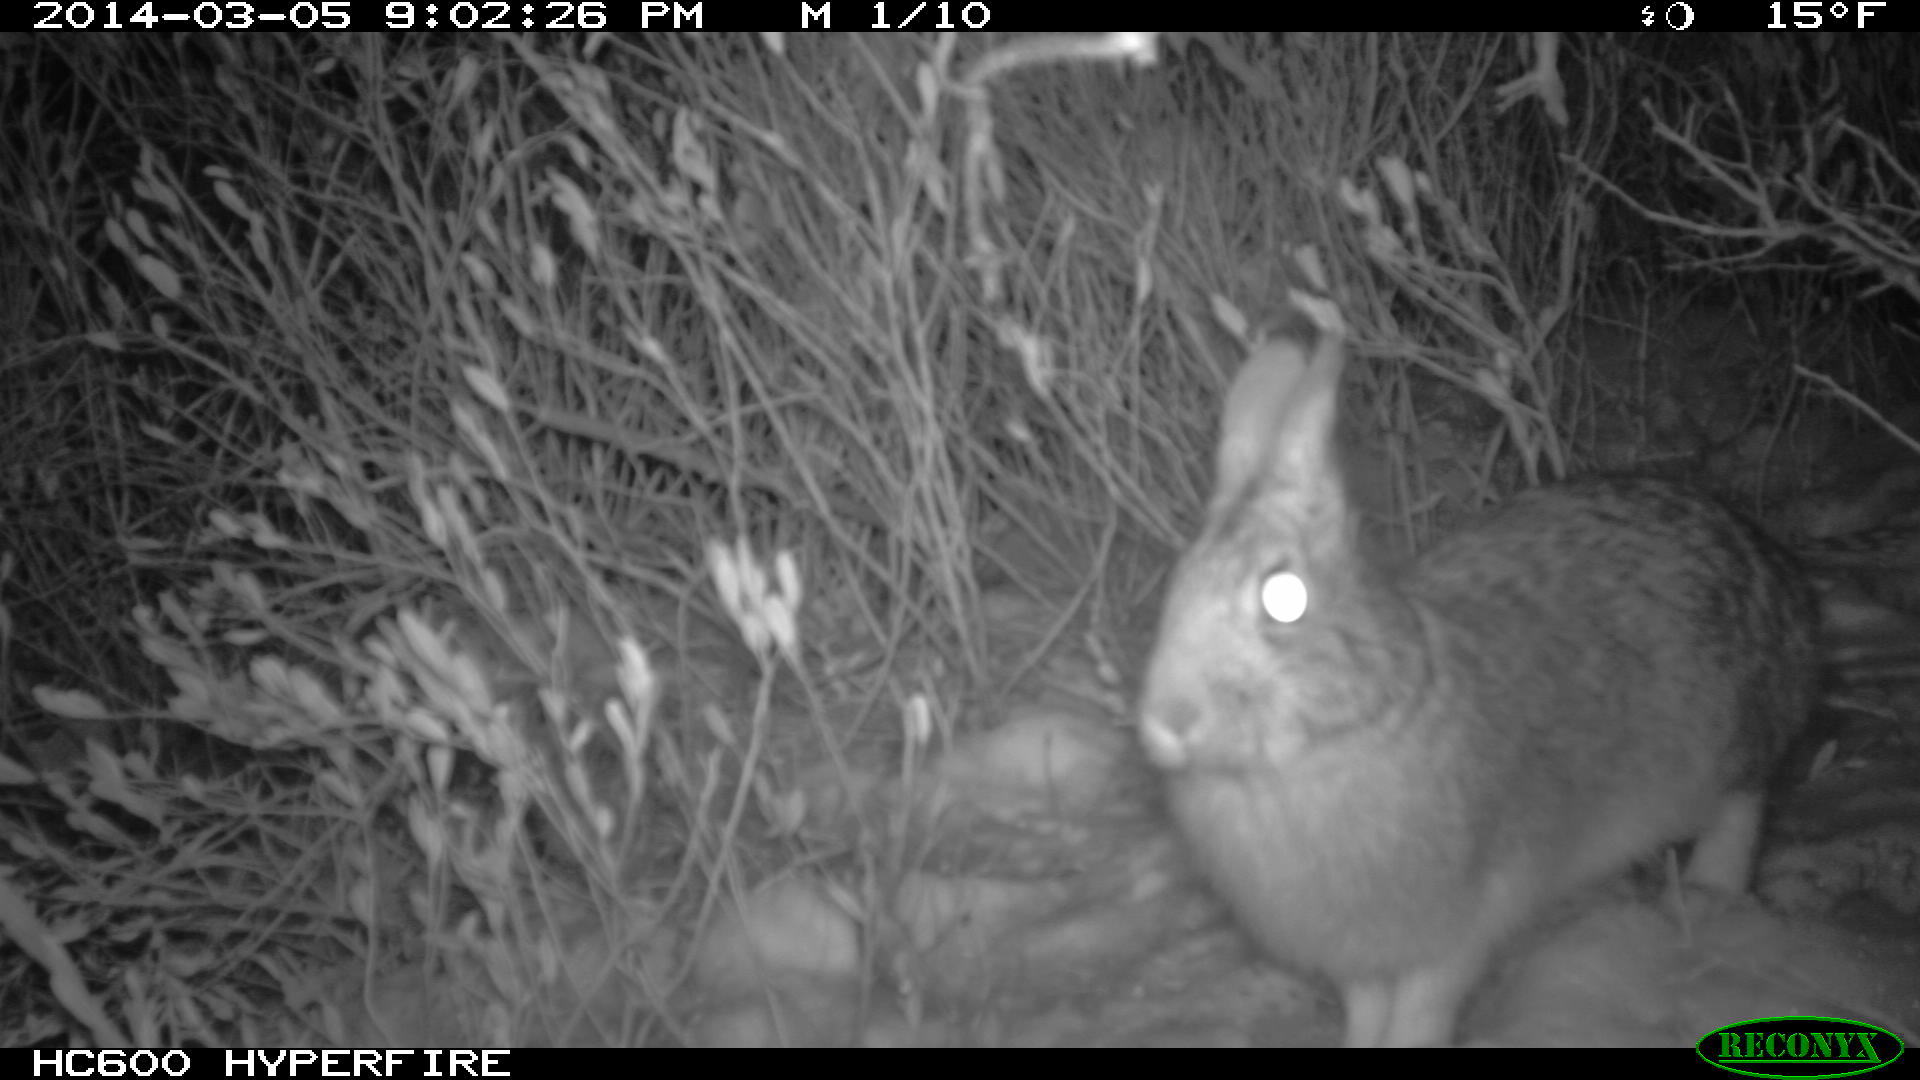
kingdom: Animalia
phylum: Chordata
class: Mammalia
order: Lagomorpha
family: Leporidae
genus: Sylvilagus
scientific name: Sylvilagus floridanus
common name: Eastern cottontail
